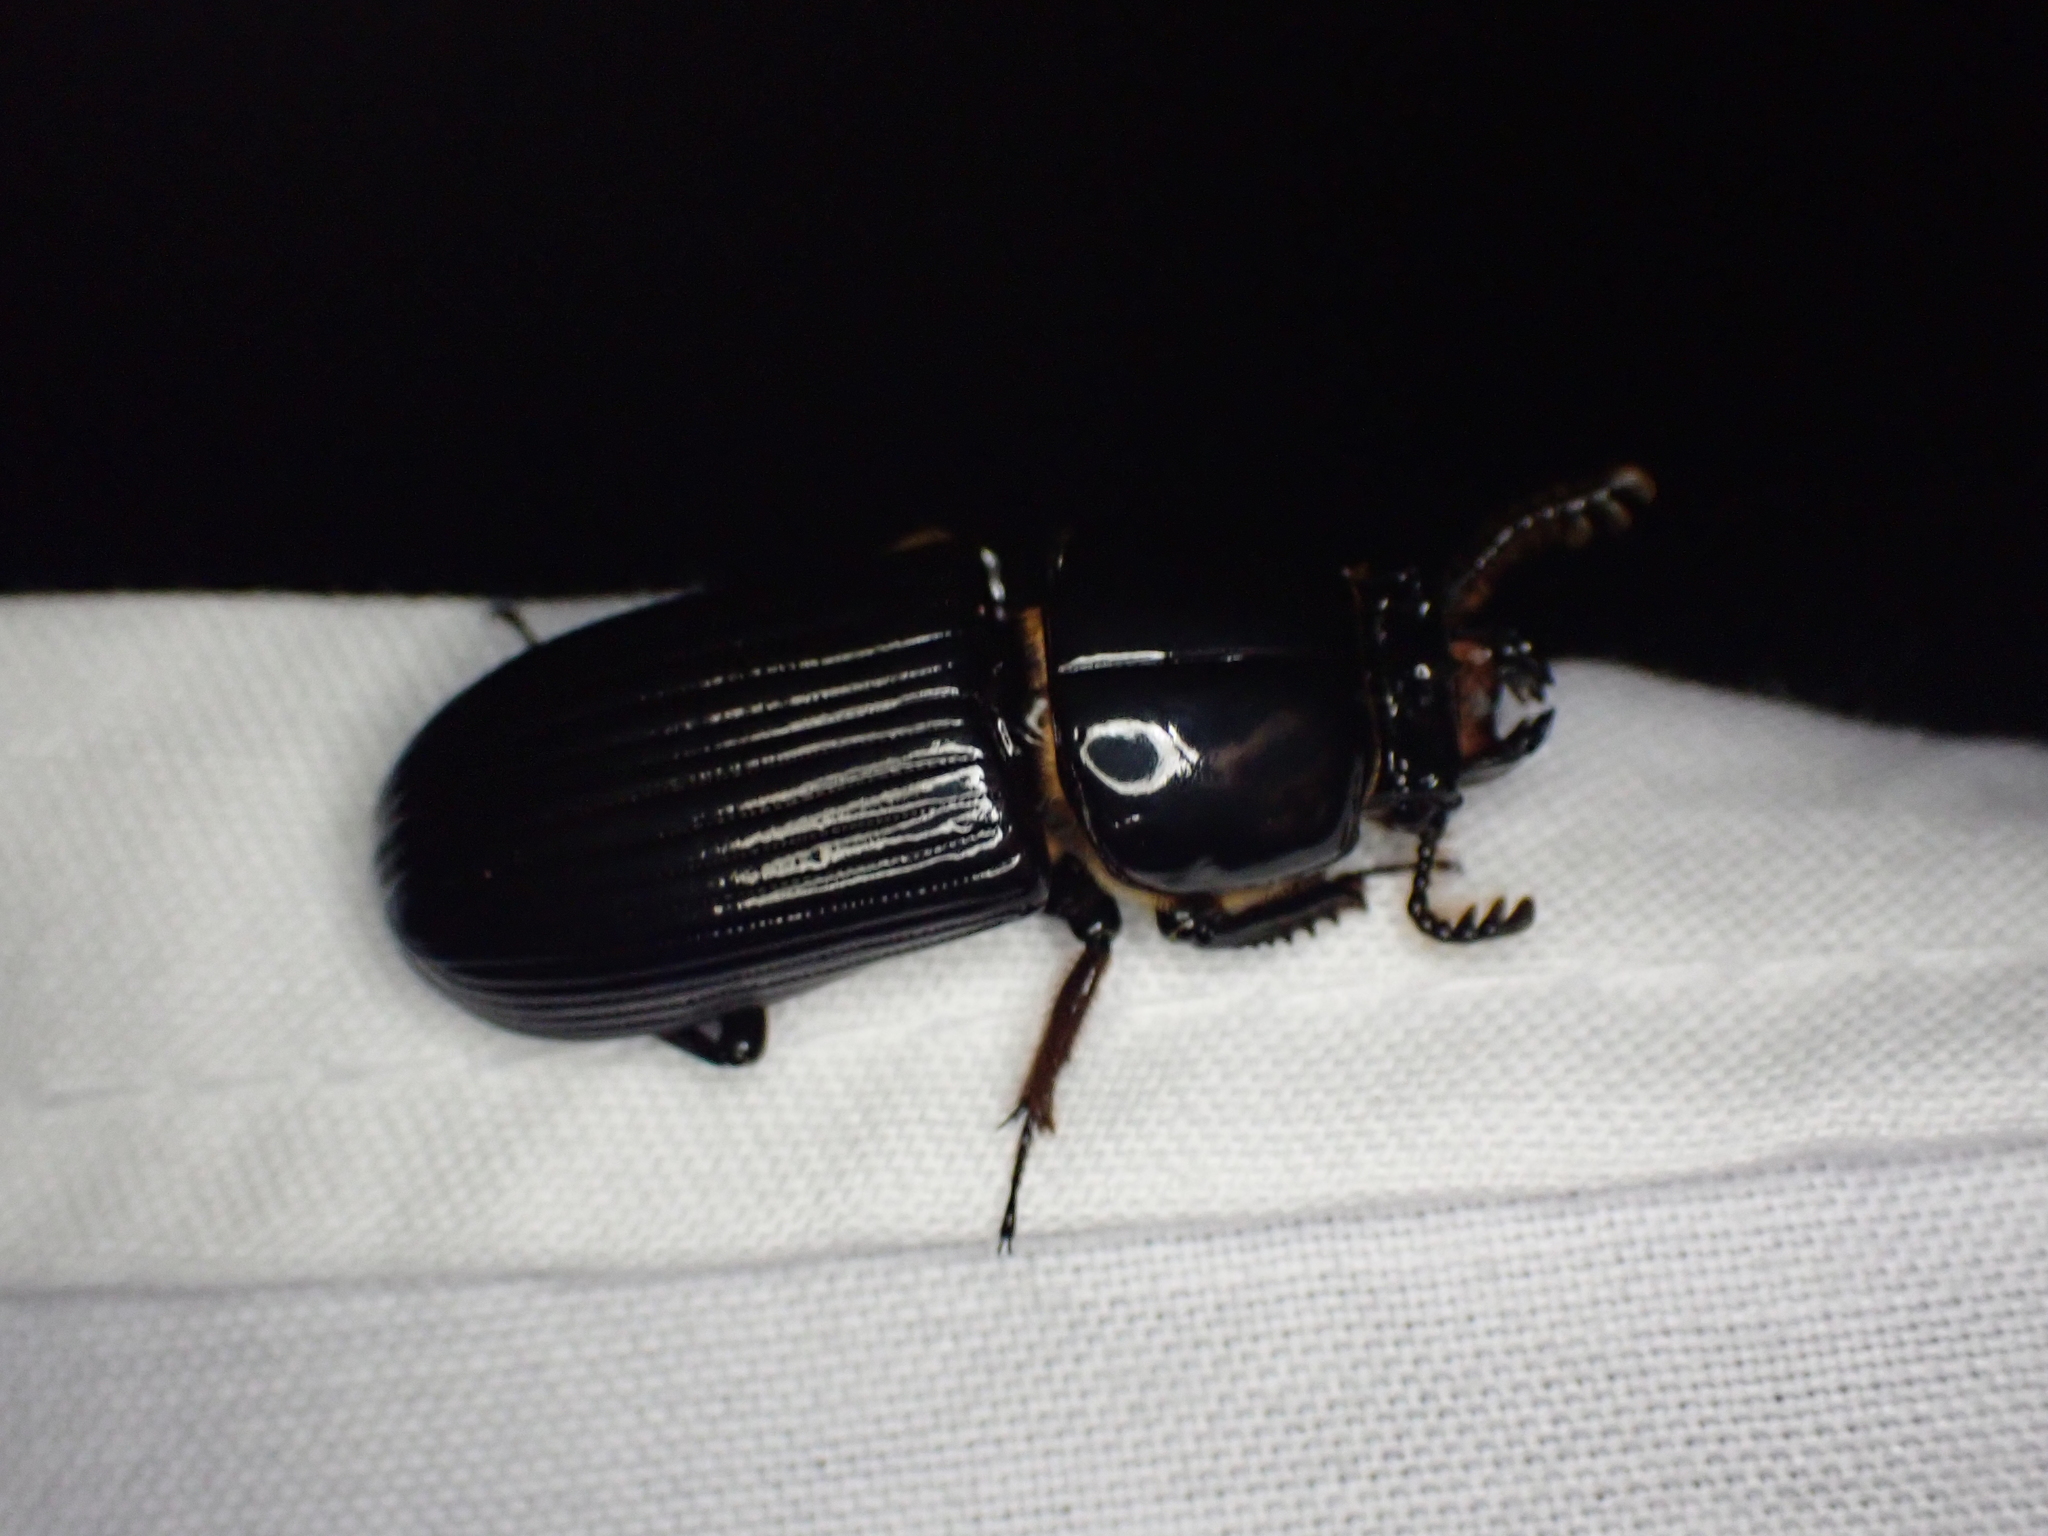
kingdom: Animalia
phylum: Arthropoda
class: Insecta
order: Coleoptera
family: Passalidae
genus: Odontotaenius
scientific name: Odontotaenius disjunctus
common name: Patent leather beetle
